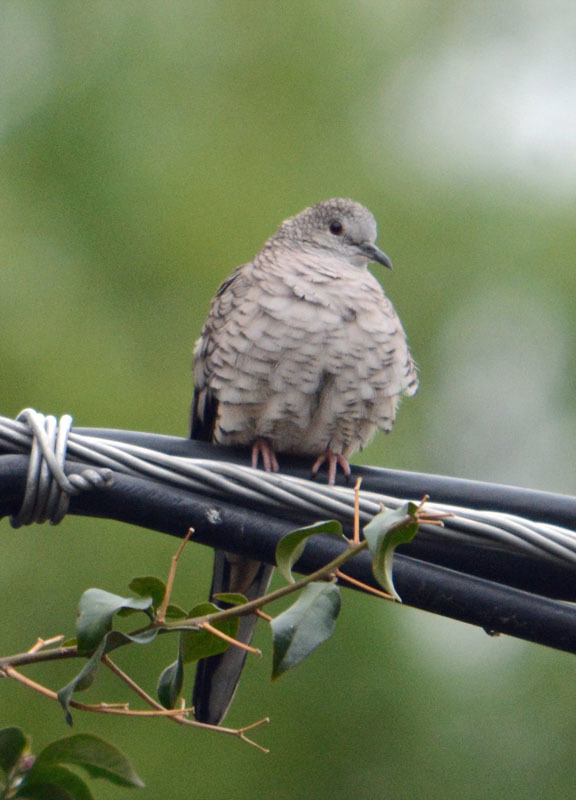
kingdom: Animalia
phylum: Chordata
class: Aves
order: Columbiformes
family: Columbidae
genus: Columbina
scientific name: Columbina inca
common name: Inca dove
